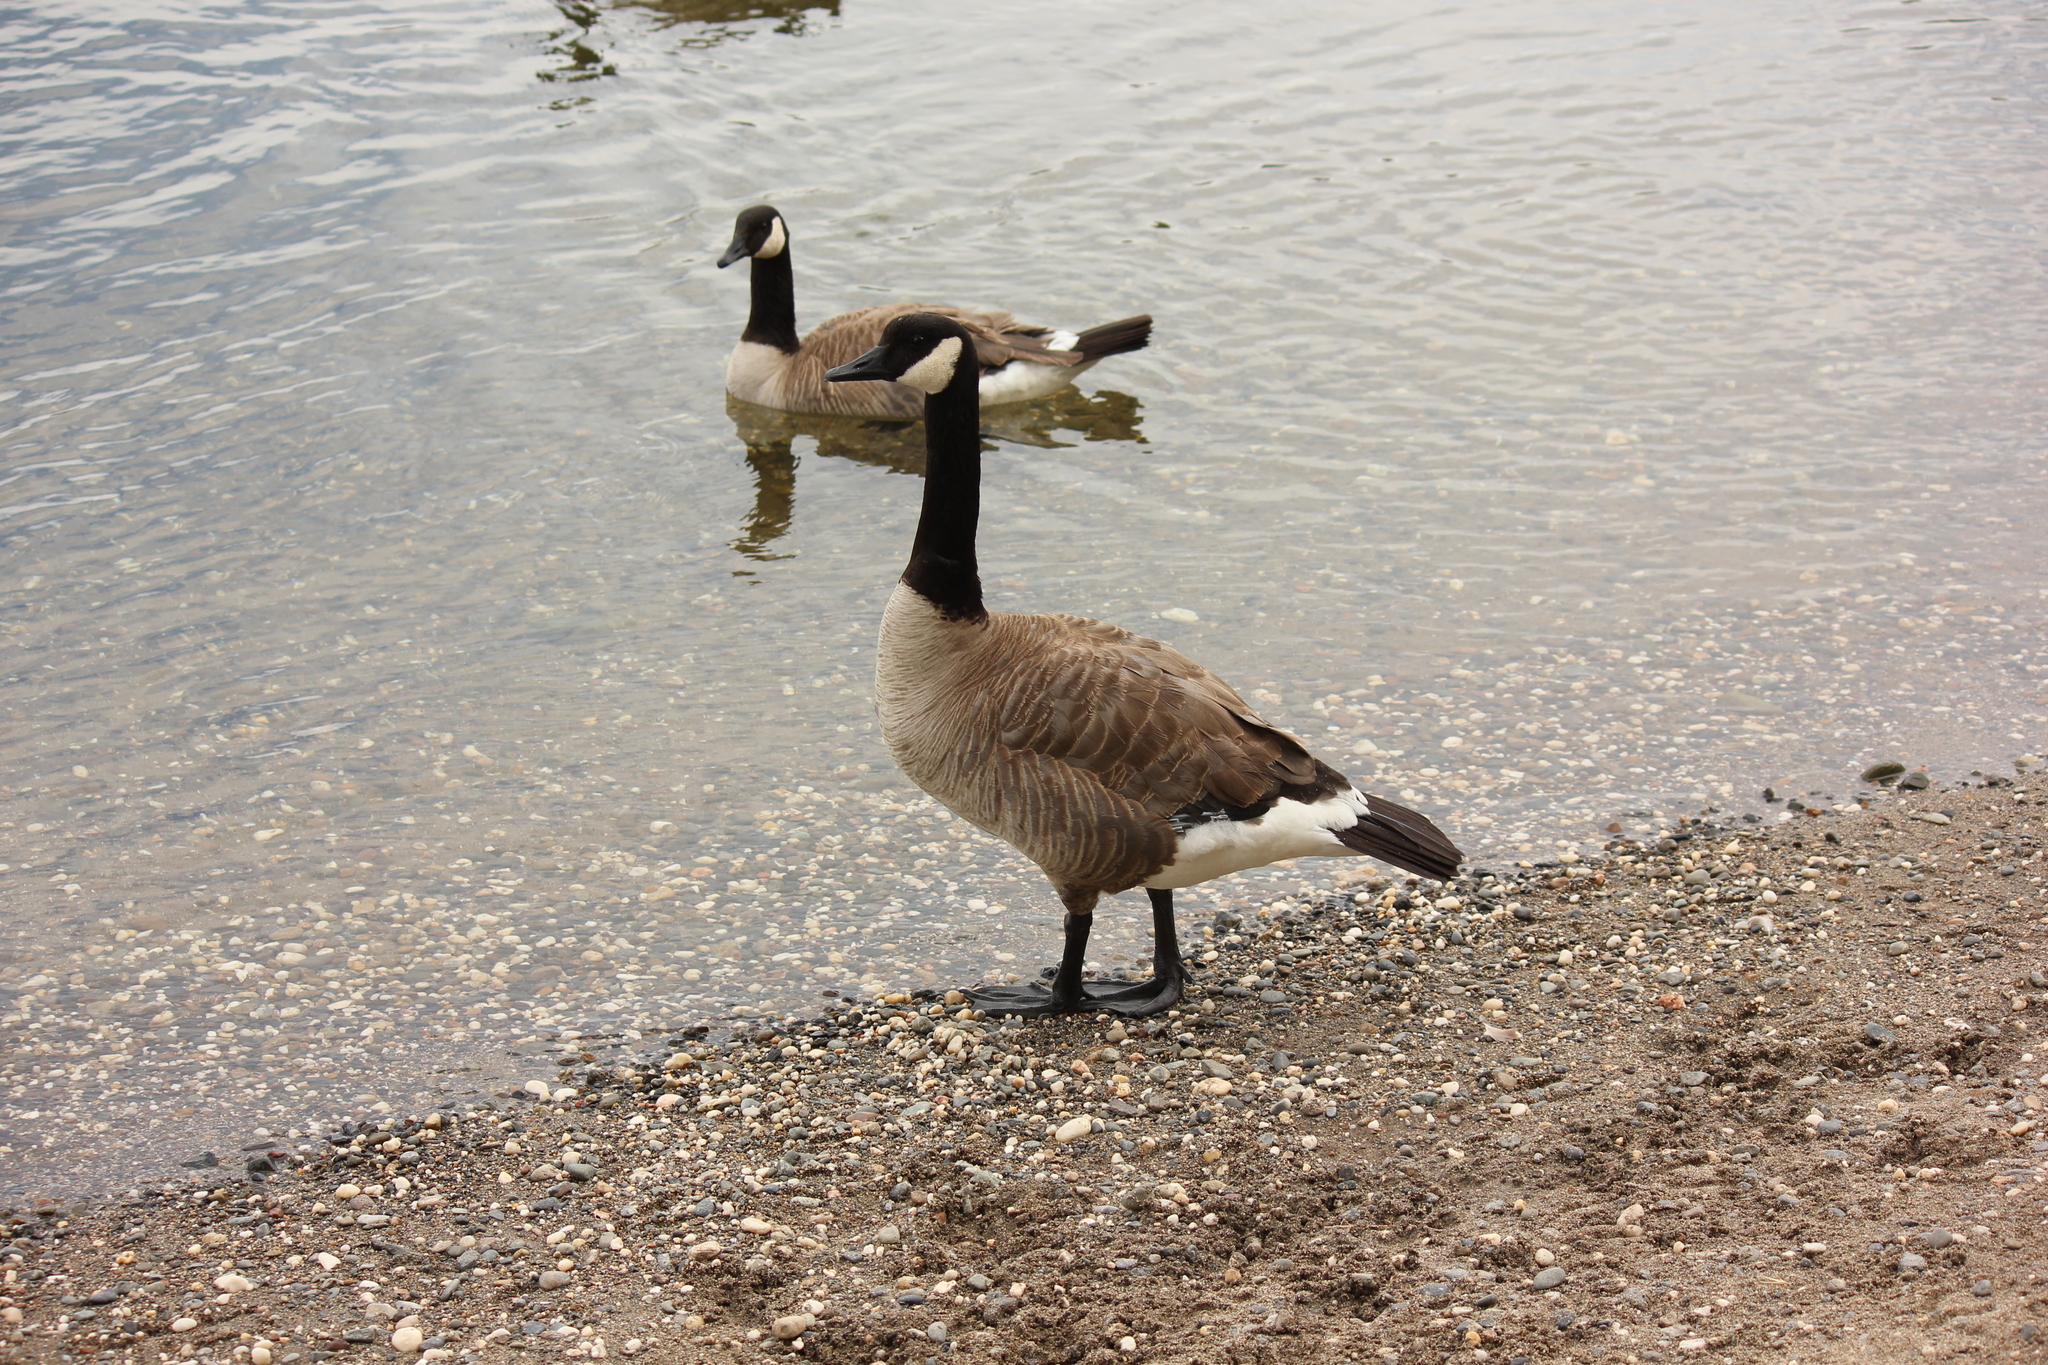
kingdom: Animalia
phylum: Chordata
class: Aves
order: Anseriformes
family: Anatidae
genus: Branta
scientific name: Branta canadensis
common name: Canada goose
